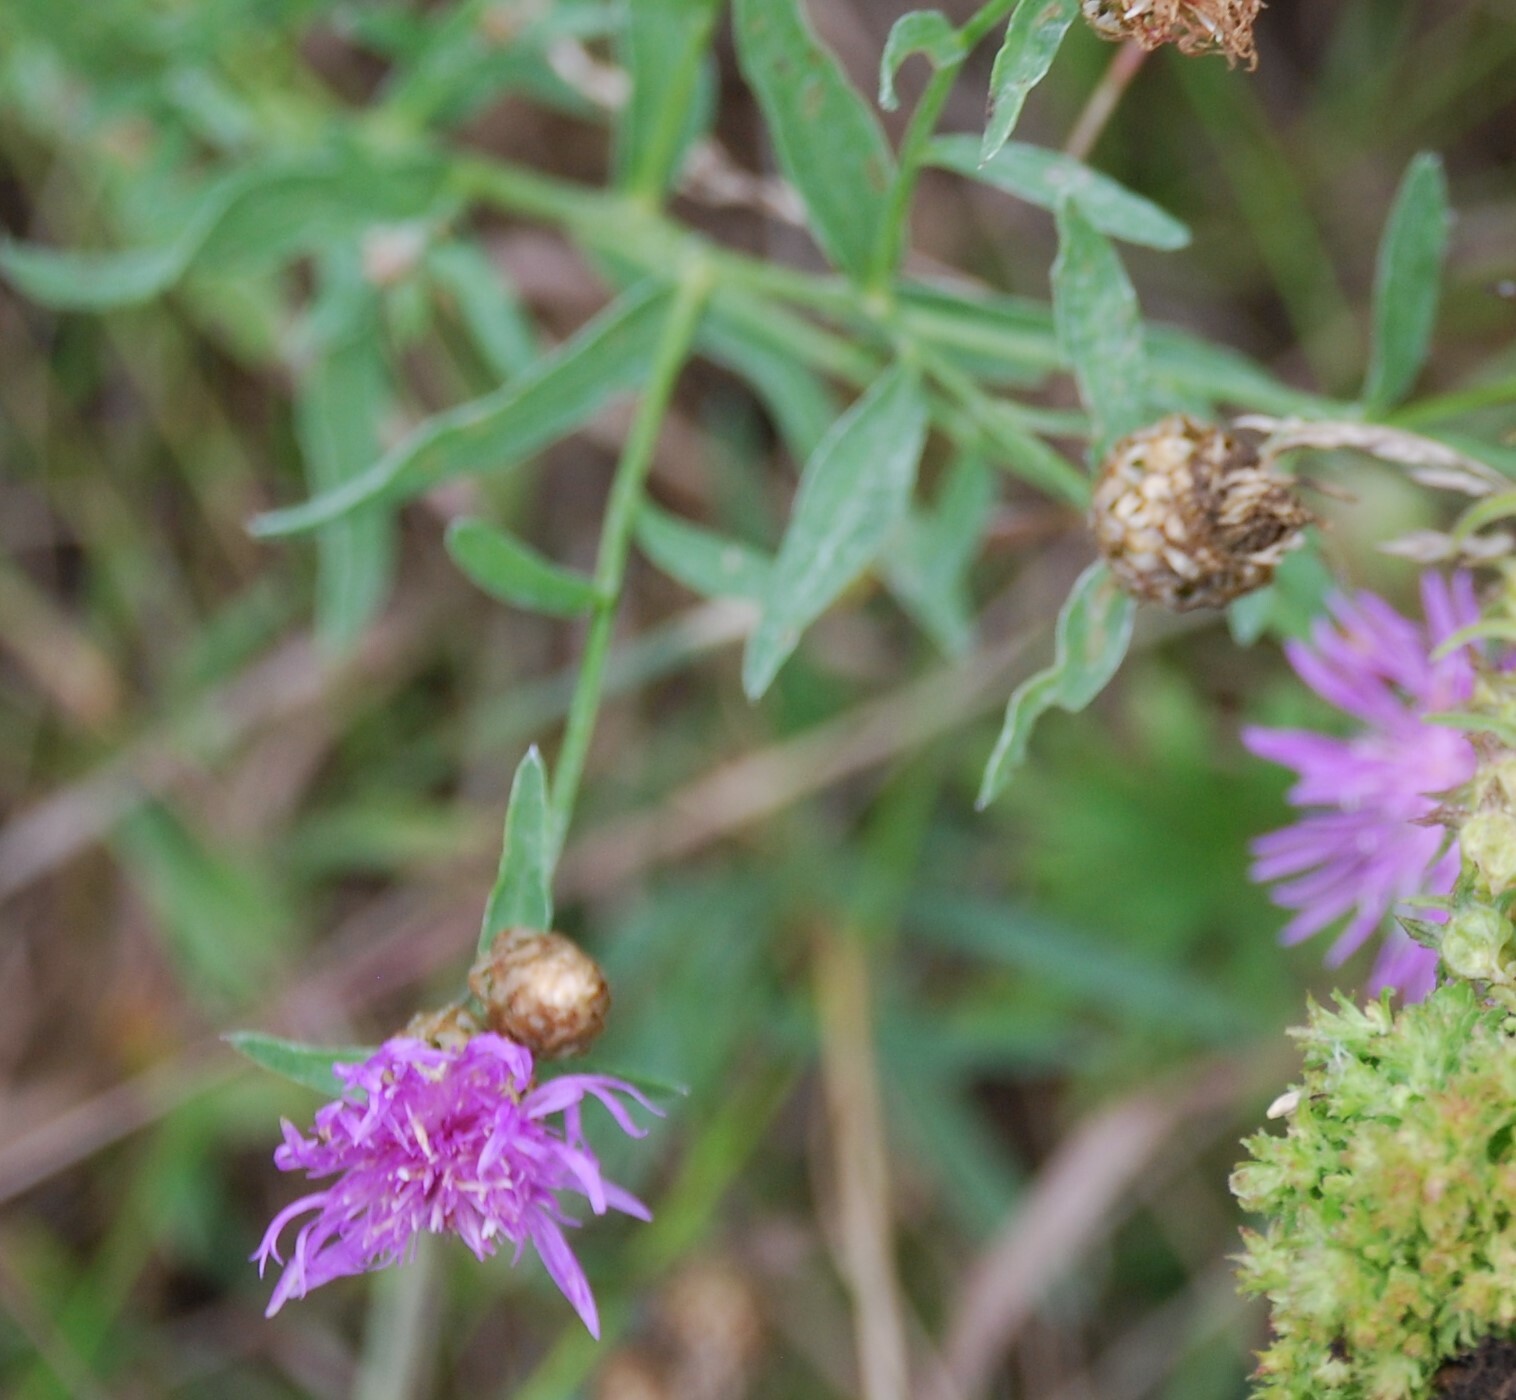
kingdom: Plantae
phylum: Tracheophyta
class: Magnoliopsida
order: Asterales
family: Asteraceae
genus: Centaurea
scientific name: Centaurea jacea
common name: Brown knapweed
